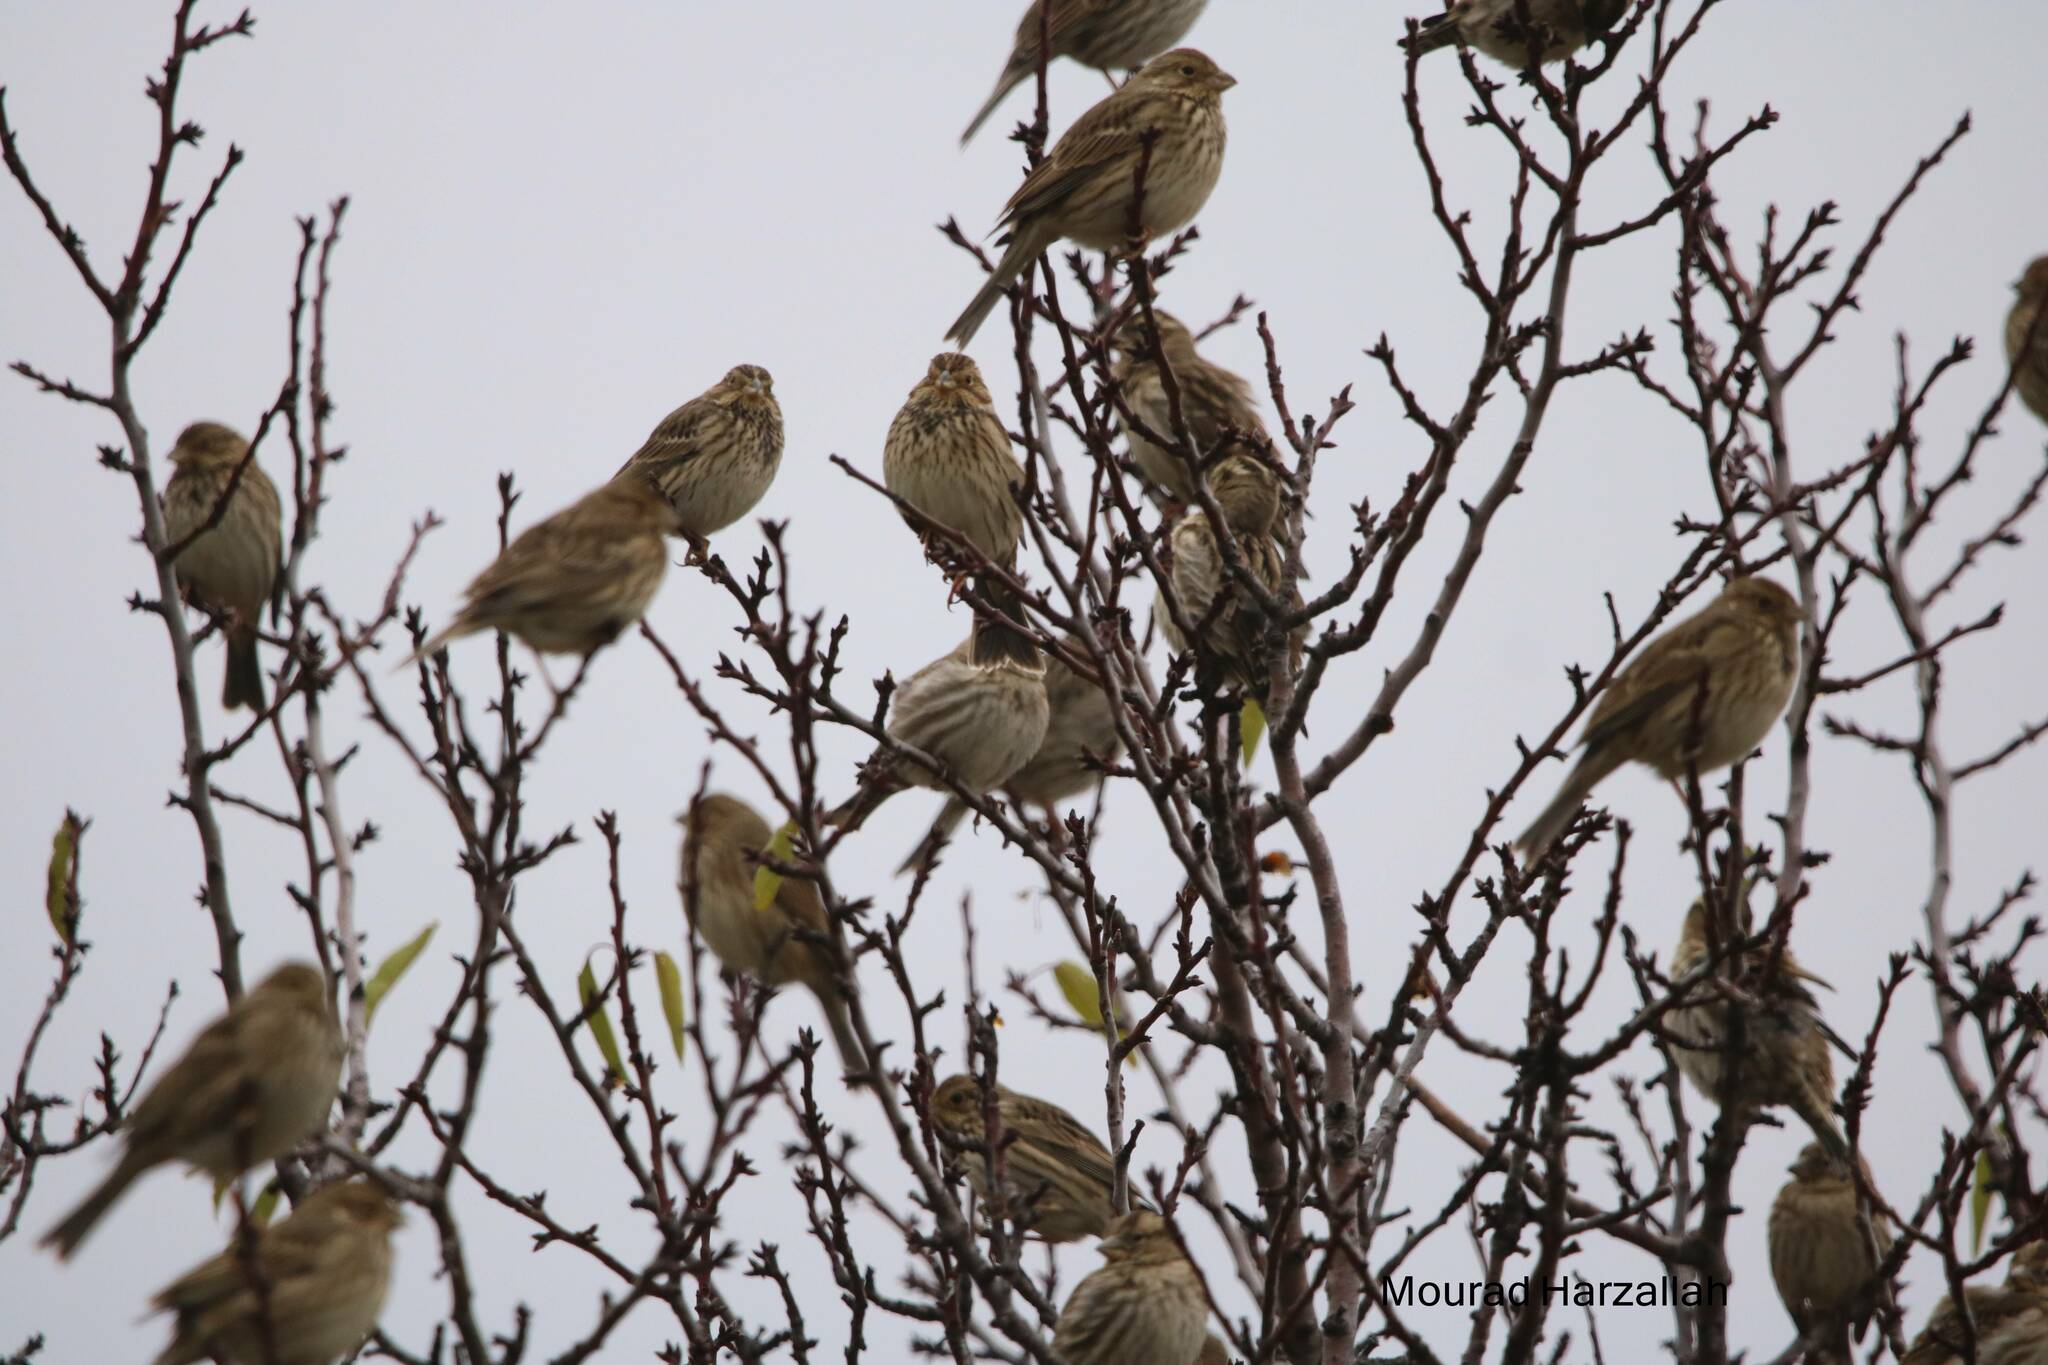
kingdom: Animalia
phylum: Chordata
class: Aves
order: Passeriformes
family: Emberizidae
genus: Emberiza
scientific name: Emberiza calandra
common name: Corn bunting
